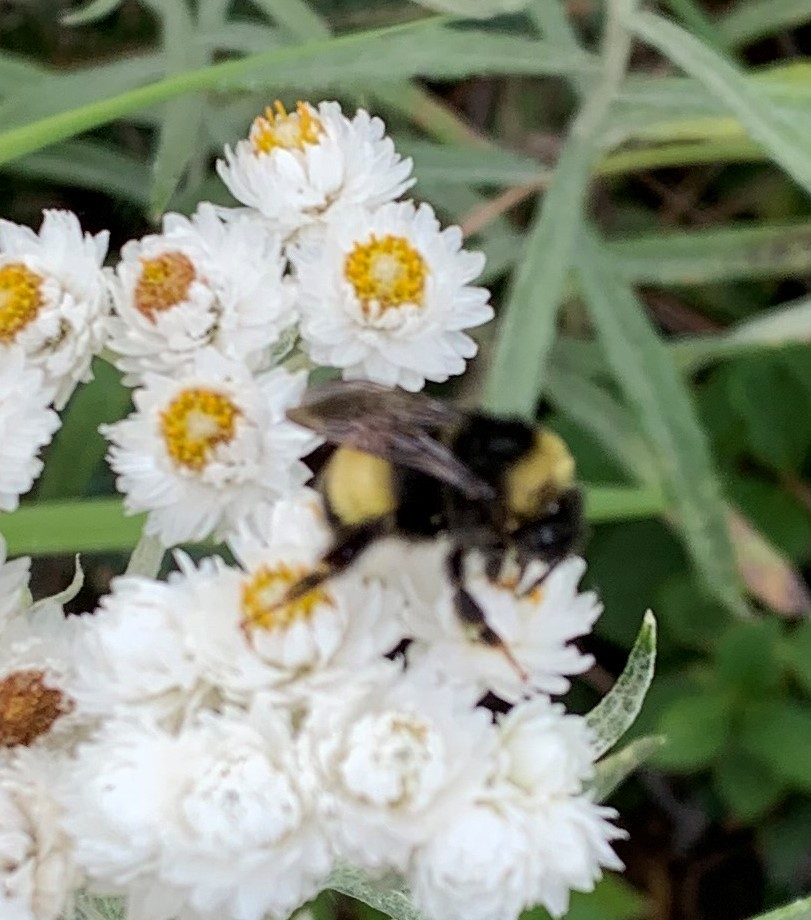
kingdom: Animalia
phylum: Arthropoda
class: Insecta
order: Hymenoptera
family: Apidae
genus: Bombus
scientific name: Bombus terricola
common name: Yellow-banded bumble bee
